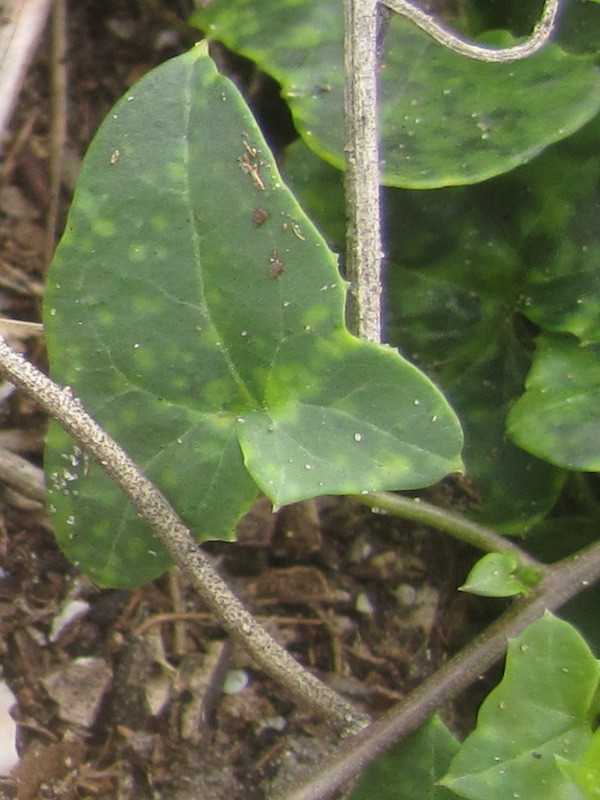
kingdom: Plantae
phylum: Tracheophyta
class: Magnoliopsida
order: Lamiales
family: Plantaginaceae
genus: Maurandella
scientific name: Maurandella antirrhiniflora
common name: Violet twining-snapdragon
